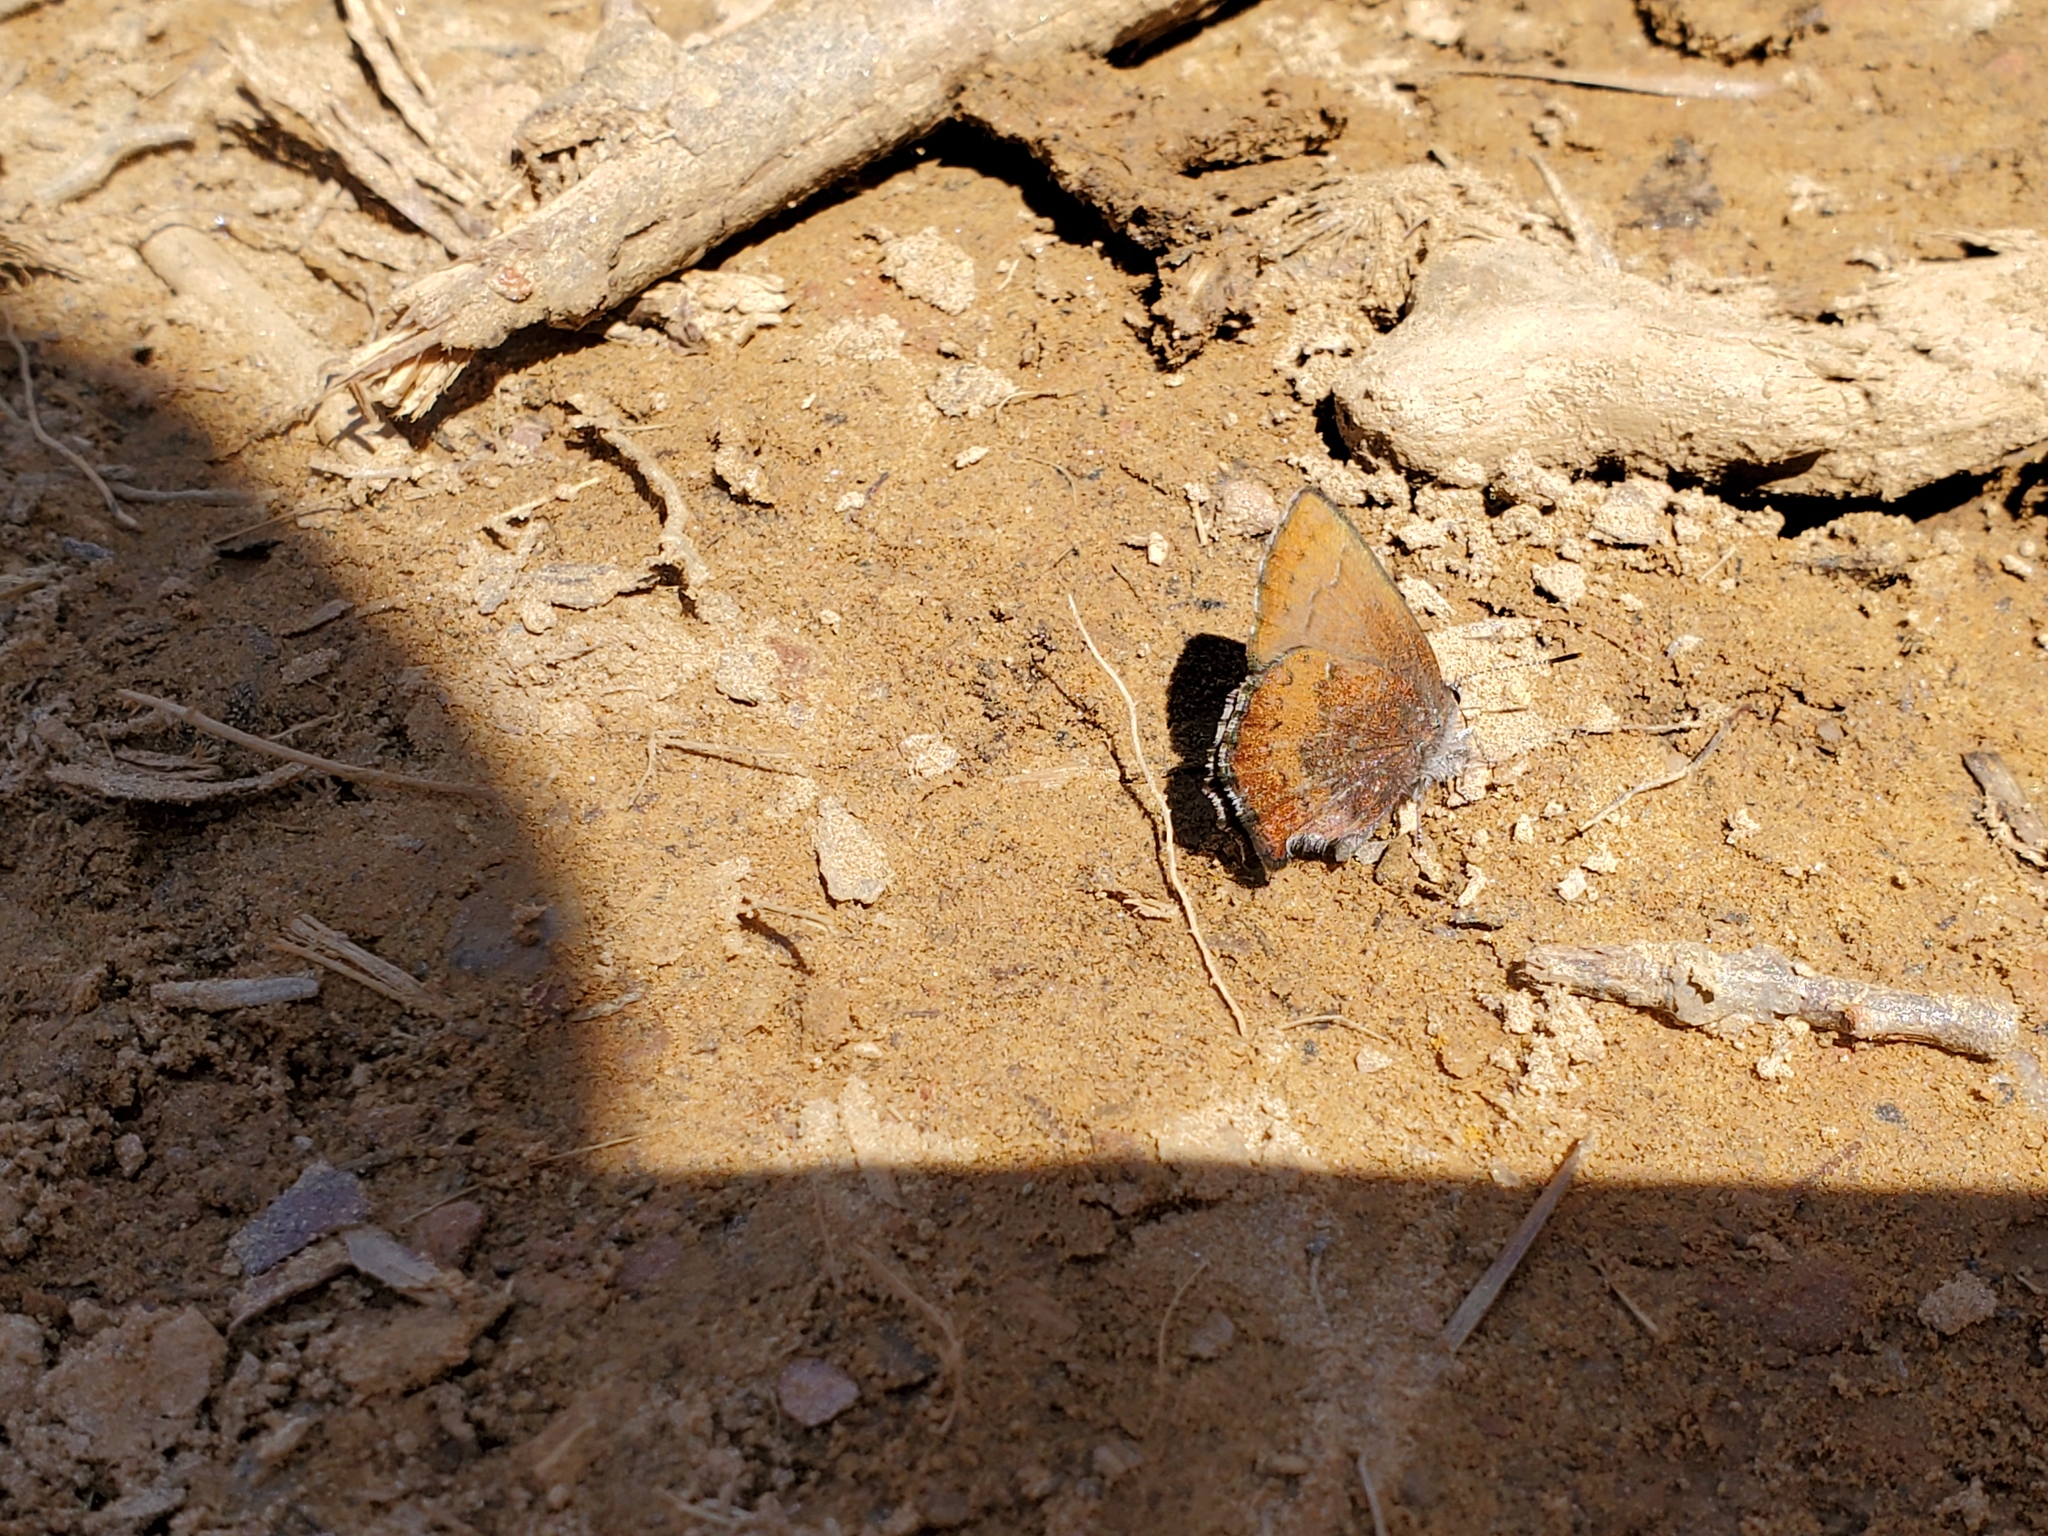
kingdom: Animalia
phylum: Arthropoda
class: Insecta
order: Lepidoptera
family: Lycaenidae
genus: Incisalia
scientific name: Incisalia irioides
